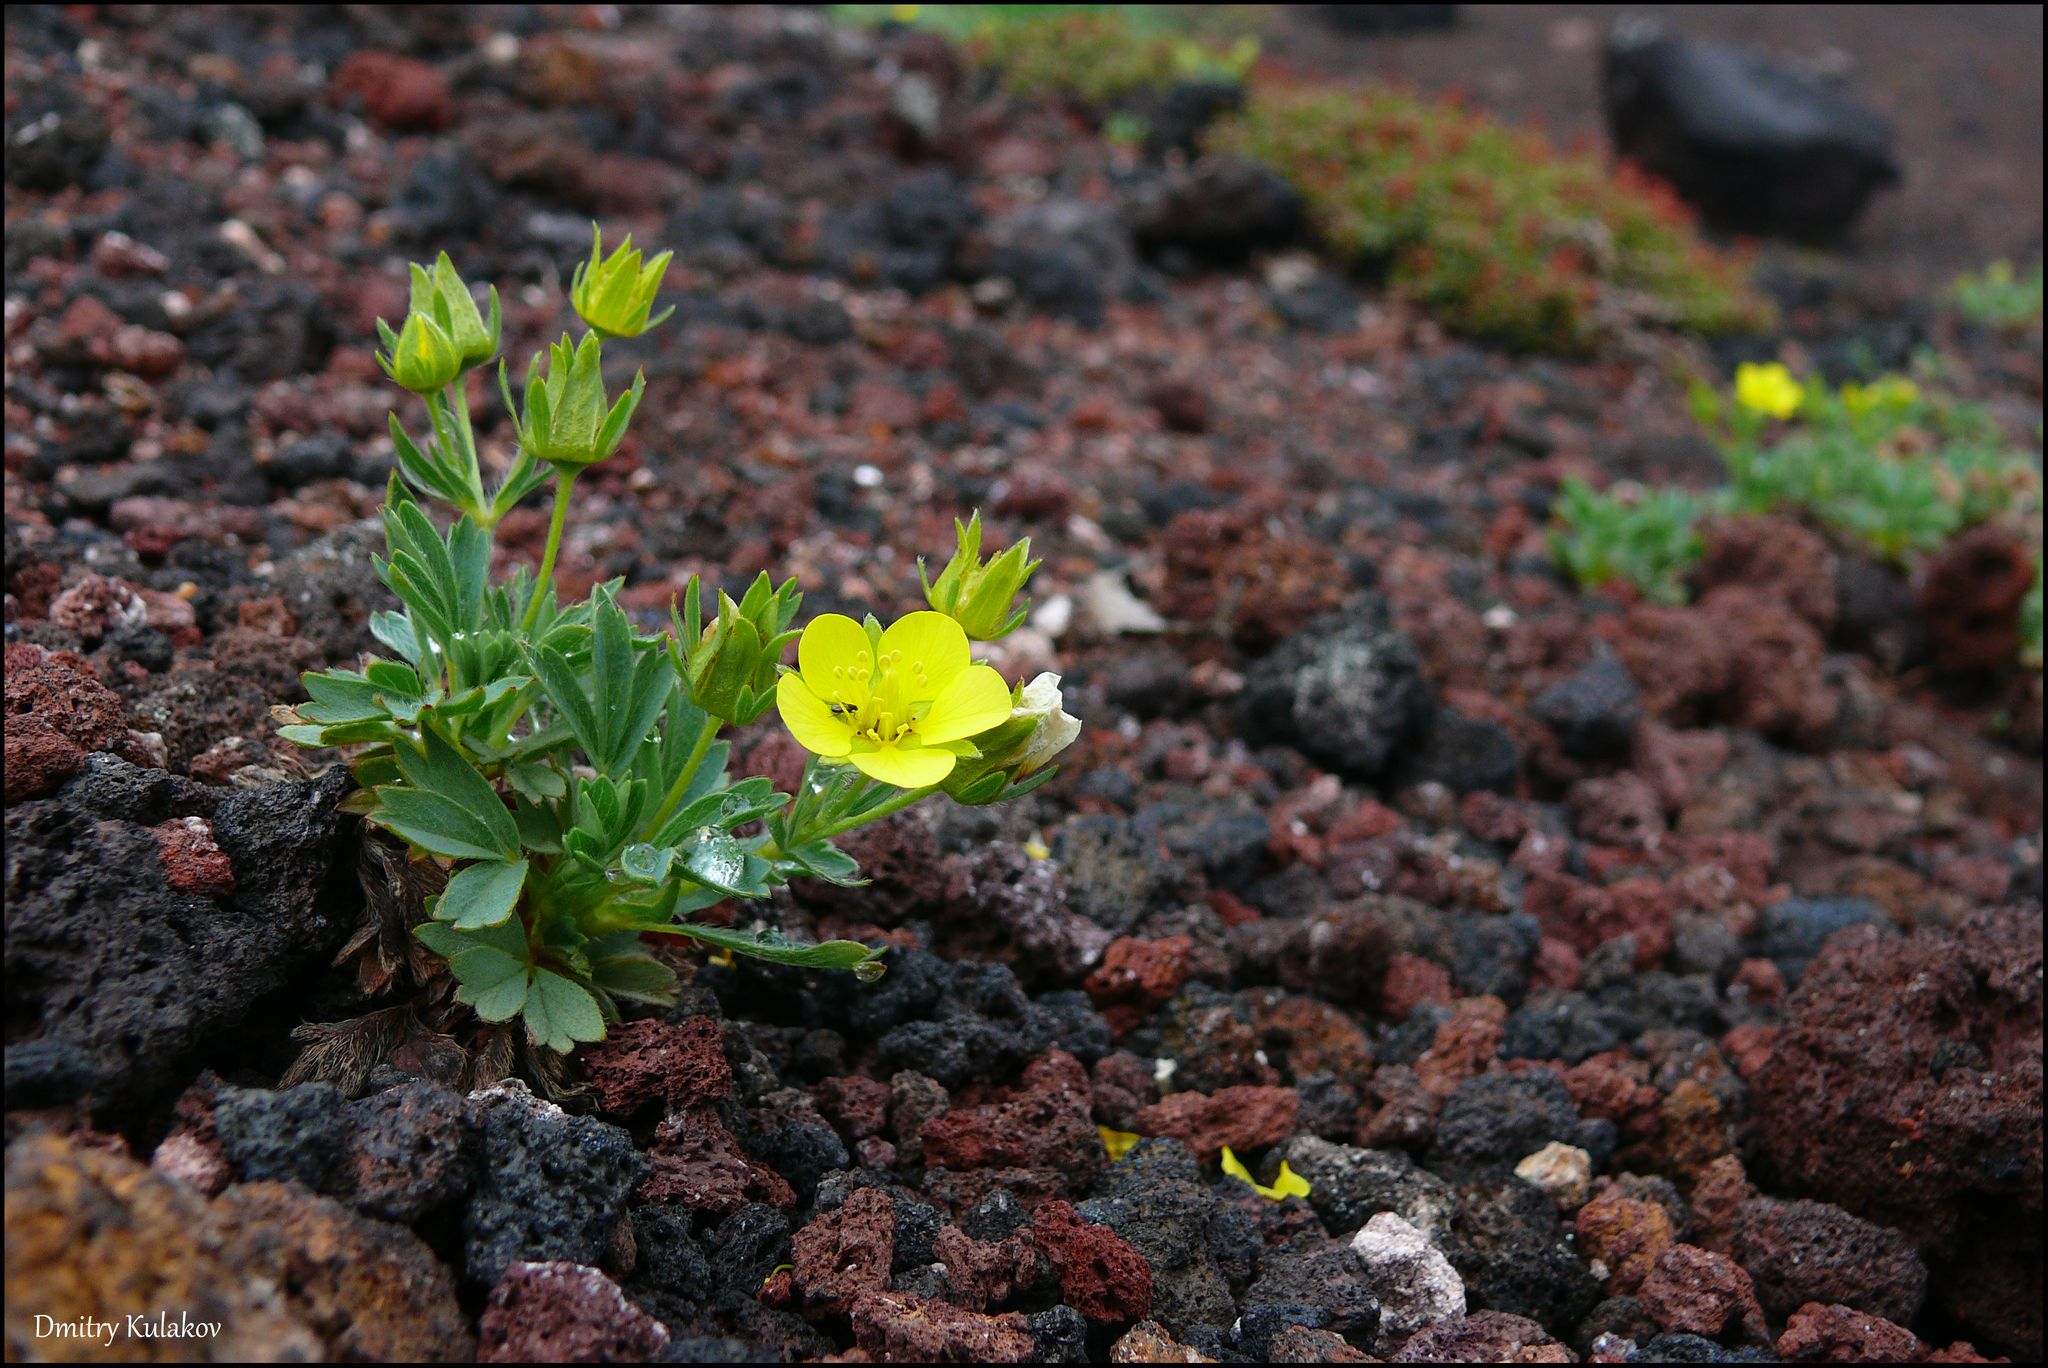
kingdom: Plantae
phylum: Tracheophyta
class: Magnoliopsida
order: Rosales
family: Rosaceae
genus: Sibbaldia
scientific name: Sibbaldia miyabei
